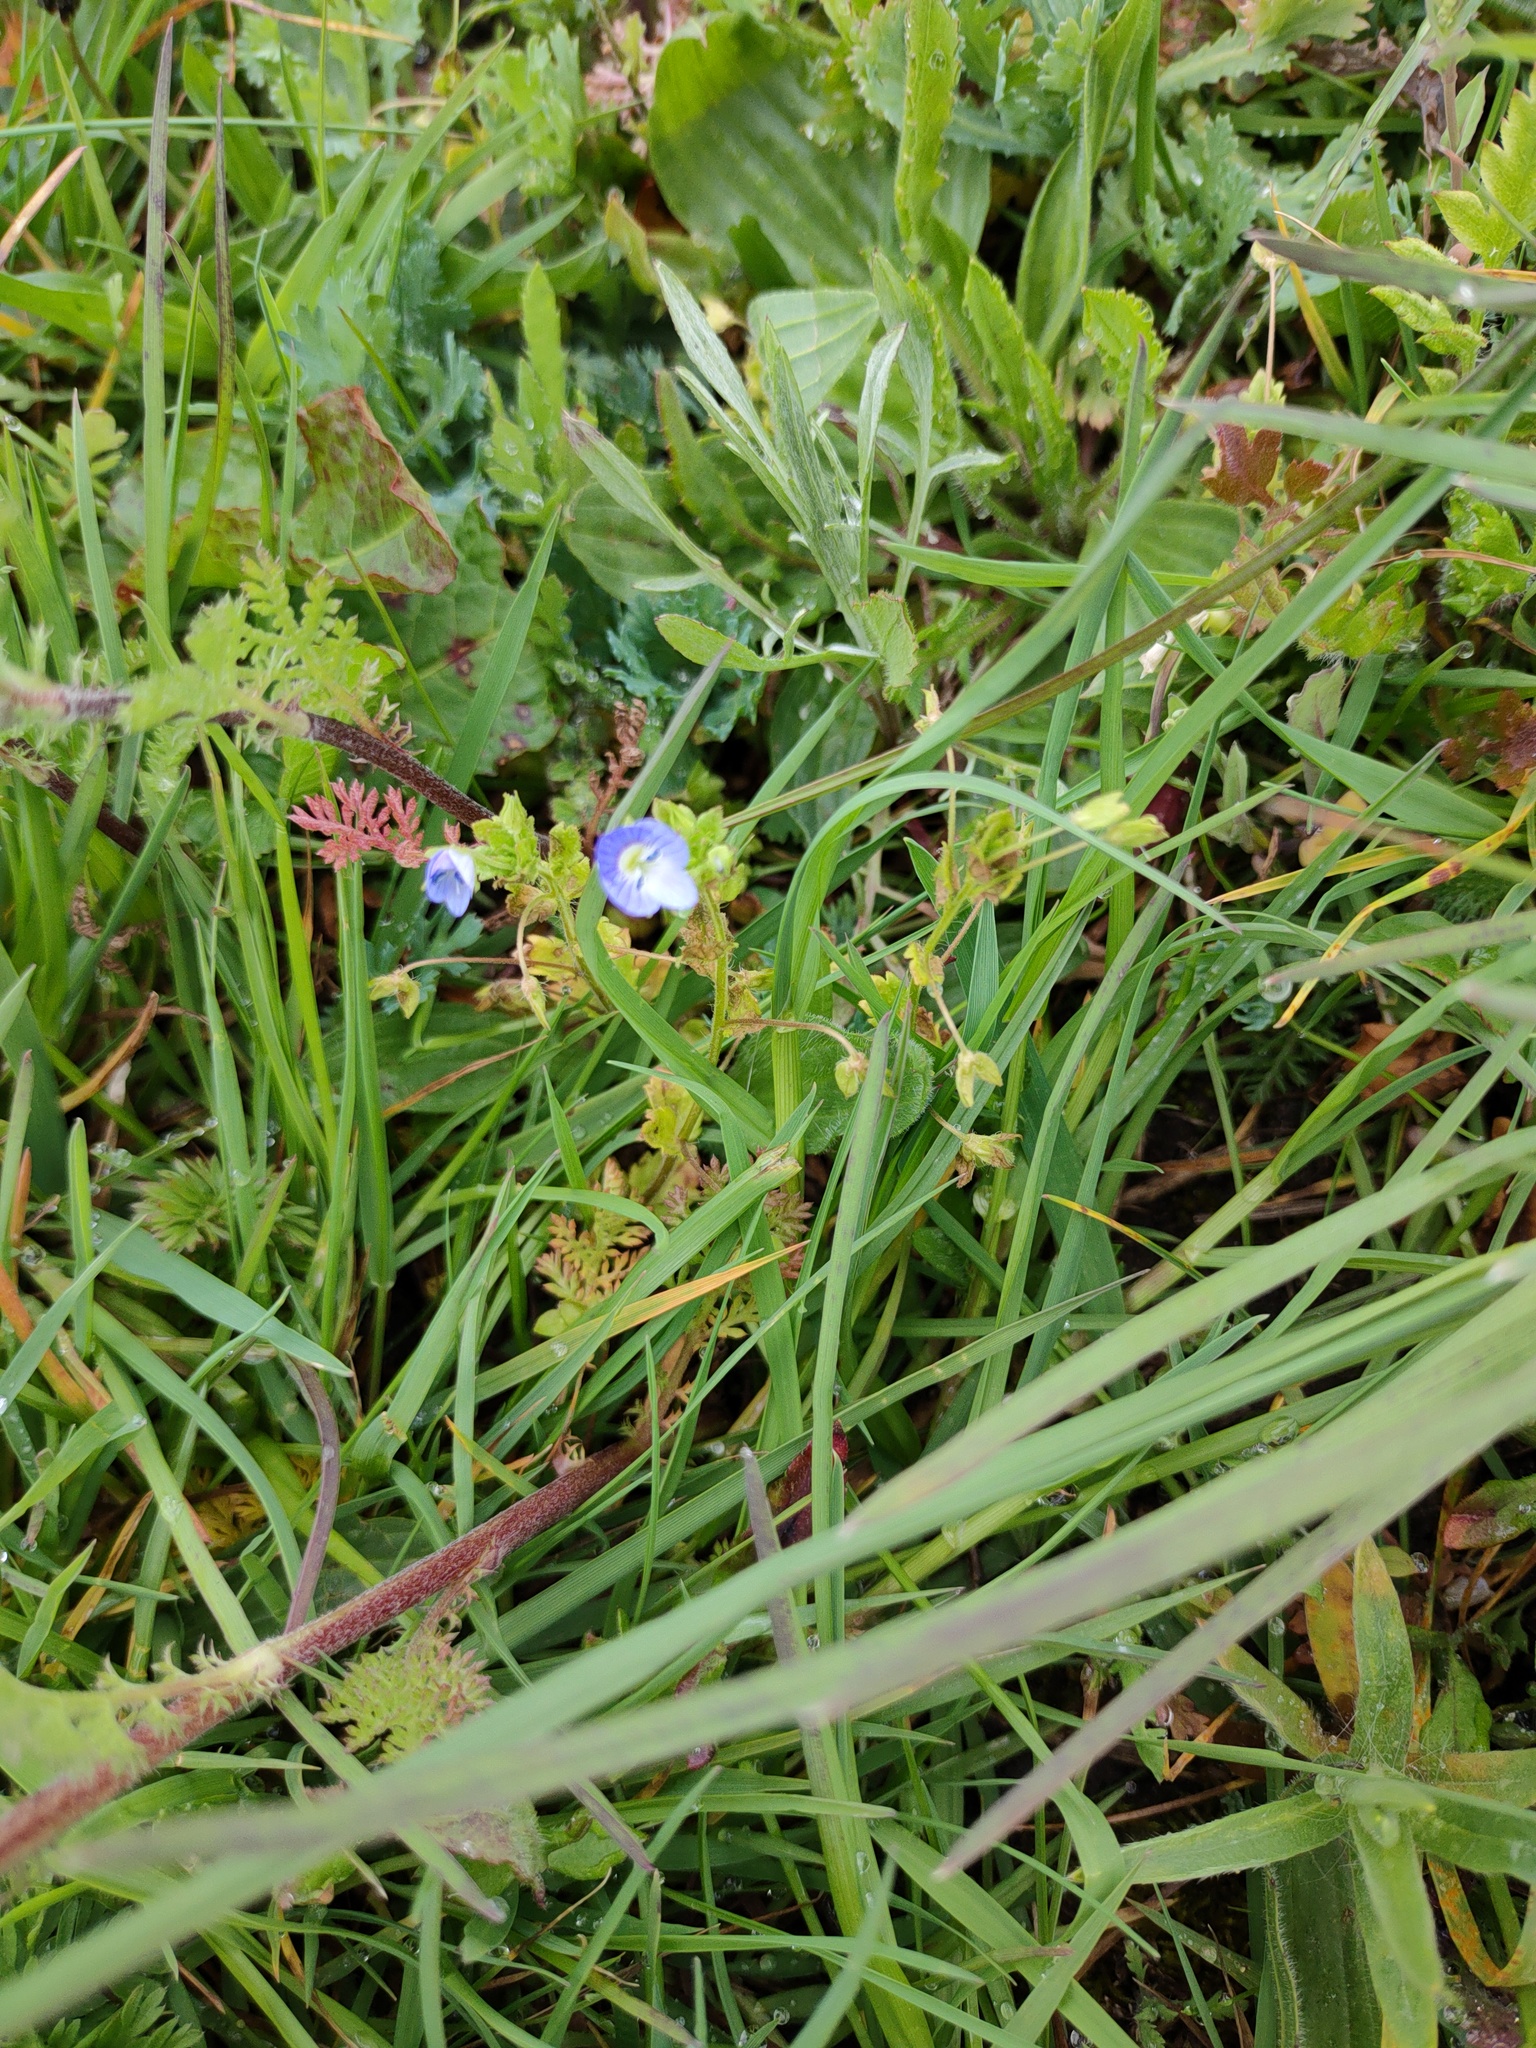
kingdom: Plantae
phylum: Tracheophyta
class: Magnoliopsida
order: Lamiales
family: Plantaginaceae
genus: Veronica
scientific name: Veronica persica
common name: Common field-speedwell
